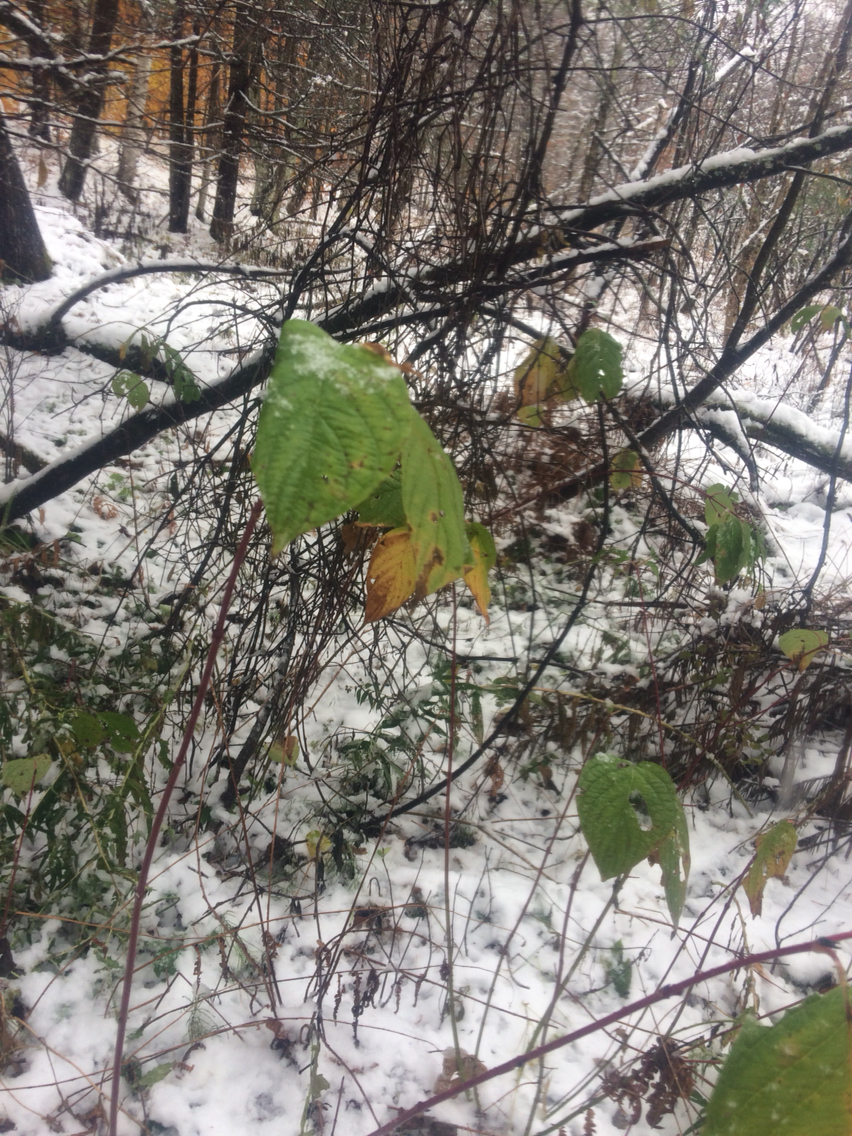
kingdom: Plantae
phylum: Tracheophyta
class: Magnoliopsida
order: Cornales
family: Cornaceae
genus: Cornus
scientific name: Cornus sericea
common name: Red-osier dogwood
